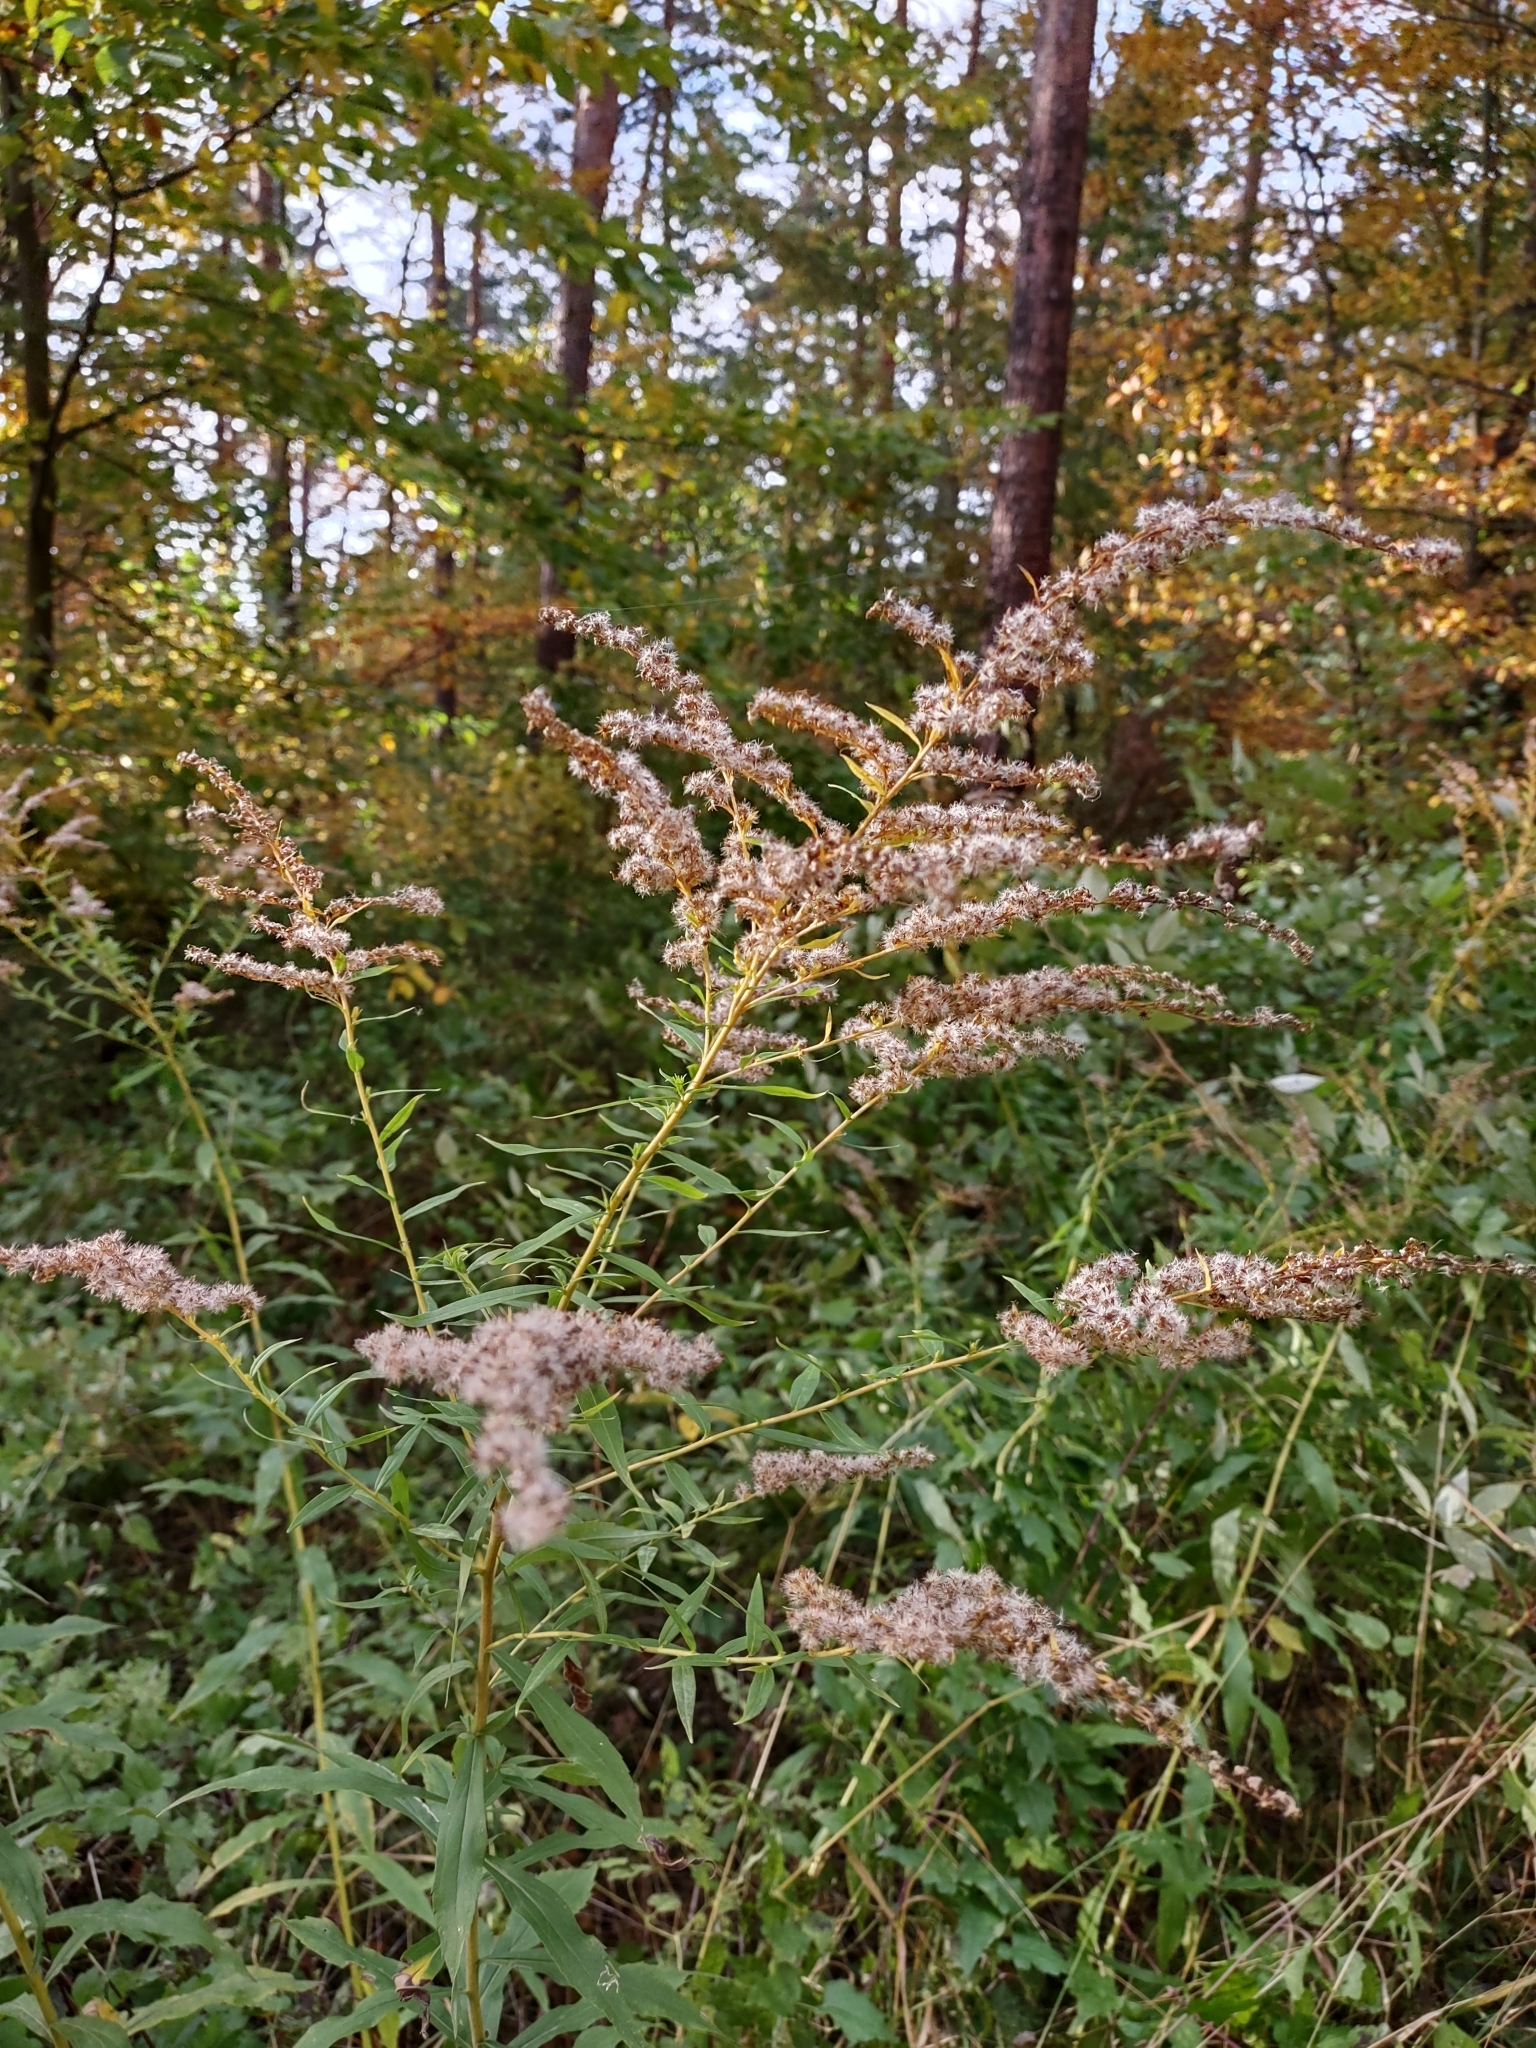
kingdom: Plantae
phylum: Tracheophyta
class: Magnoliopsida
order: Asterales
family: Asteraceae
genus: Solidago
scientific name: Solidago canadensis
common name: Canada goldenrod
